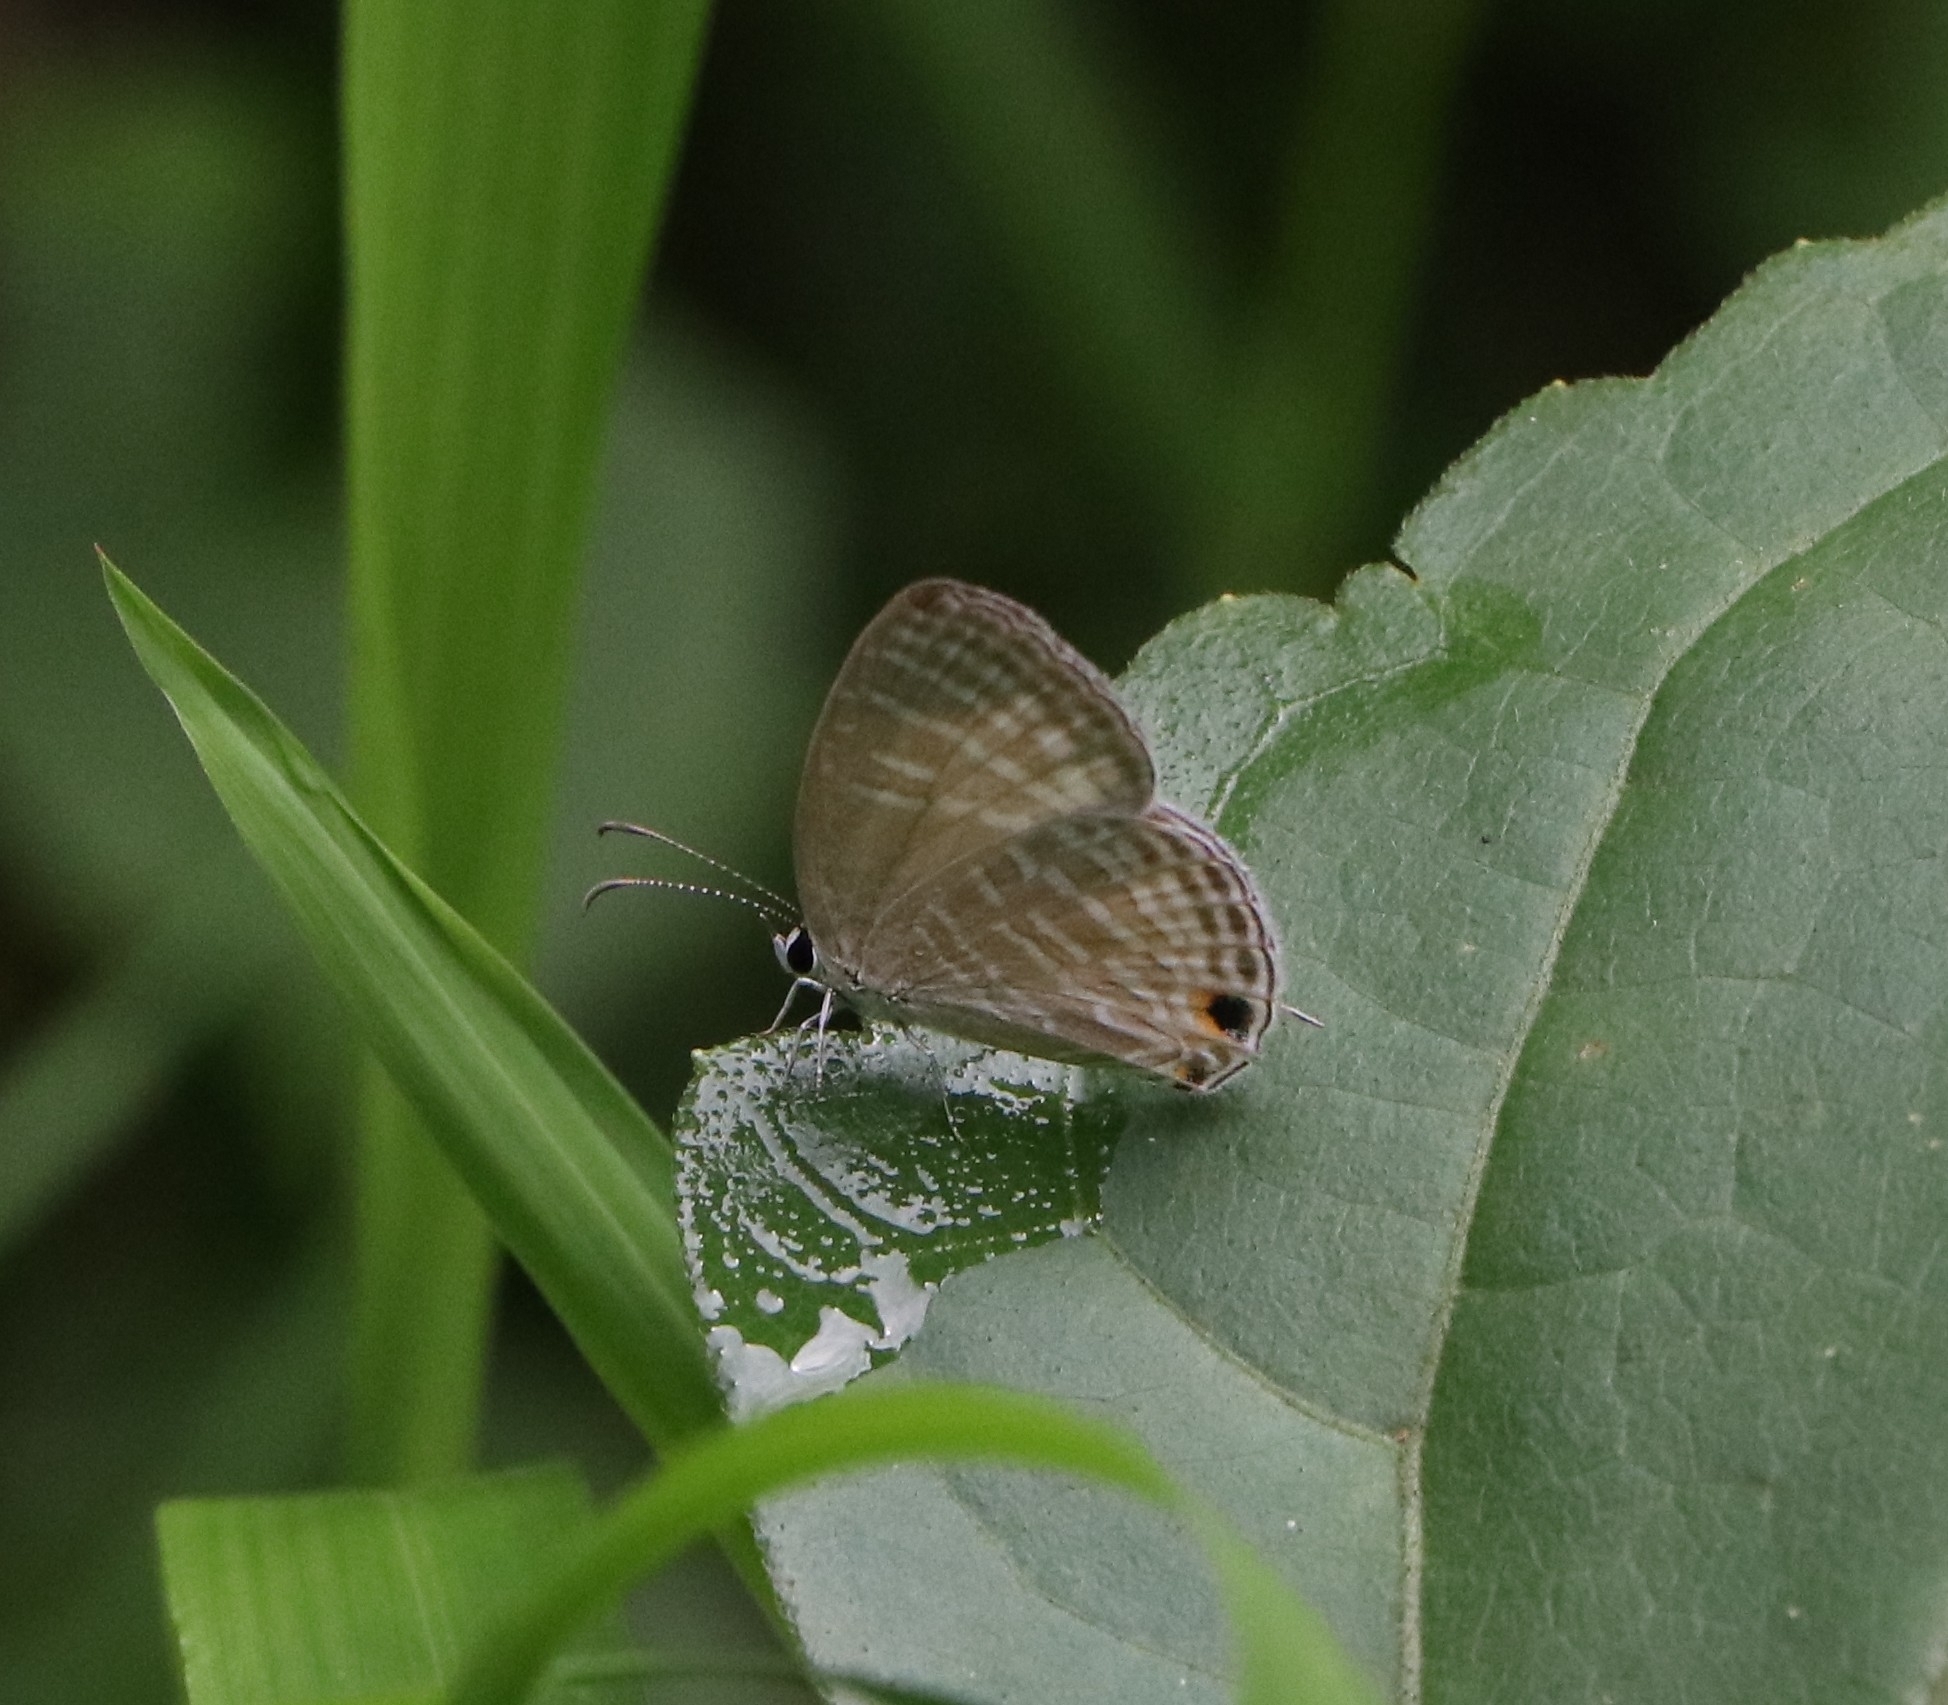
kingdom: Animalia
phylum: Arthropoda
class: Insecta
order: Lepidoptera
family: Lycaenidae
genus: Jamides
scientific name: Jamides celeno
